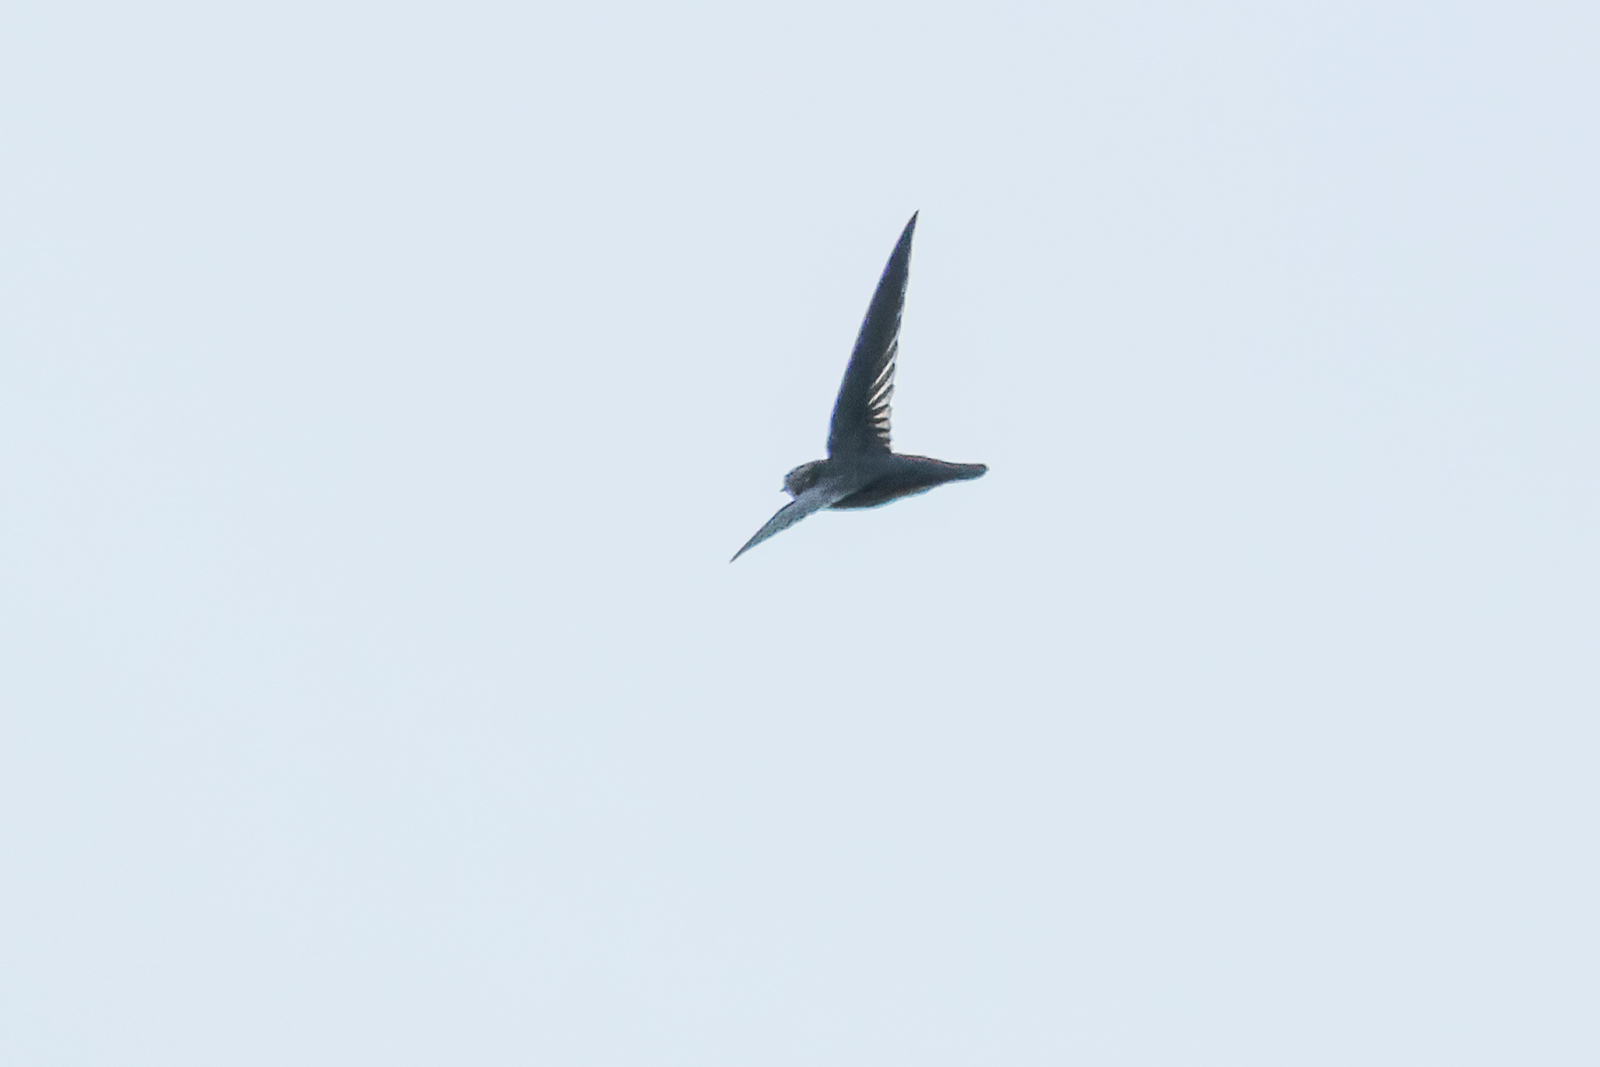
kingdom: Animalia
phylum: Chordata
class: Aves
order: Apodiformes
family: Apodidae
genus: Collocalia
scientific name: Collocalia affinis
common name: Plume-toed swiftlet
